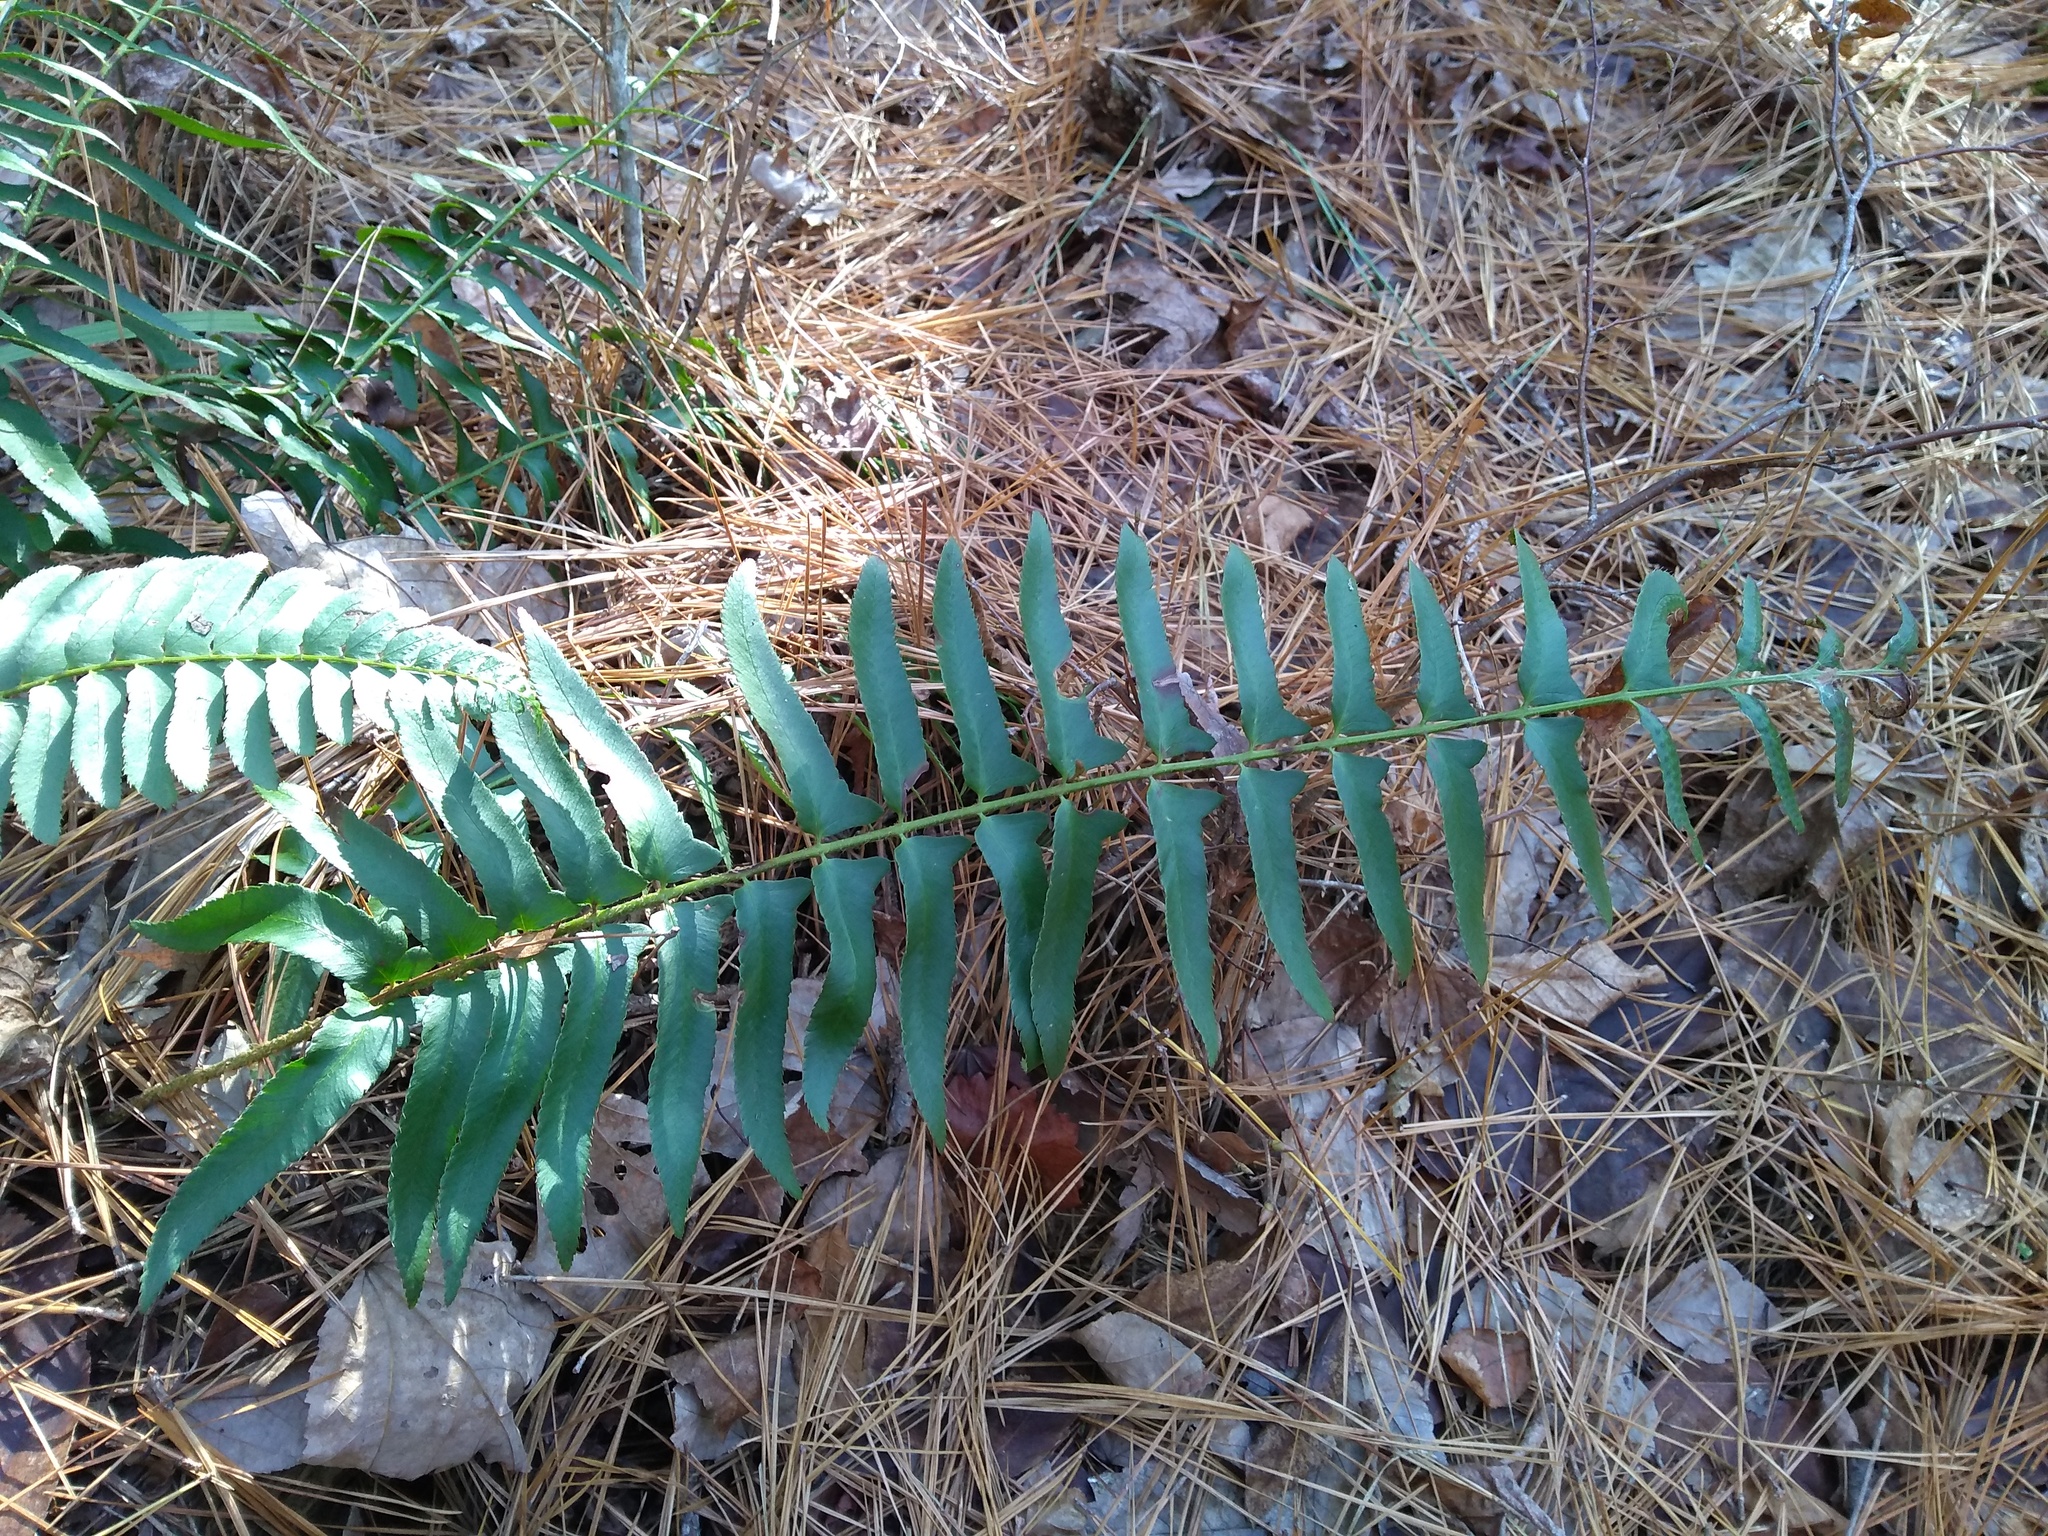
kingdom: Plantae
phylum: Tracheophyta
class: Polypodiopsida
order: Polypodiales
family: Dryopteridaceae
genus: Polystichum
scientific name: Polystichum acrostichoides
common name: Christmas fern
